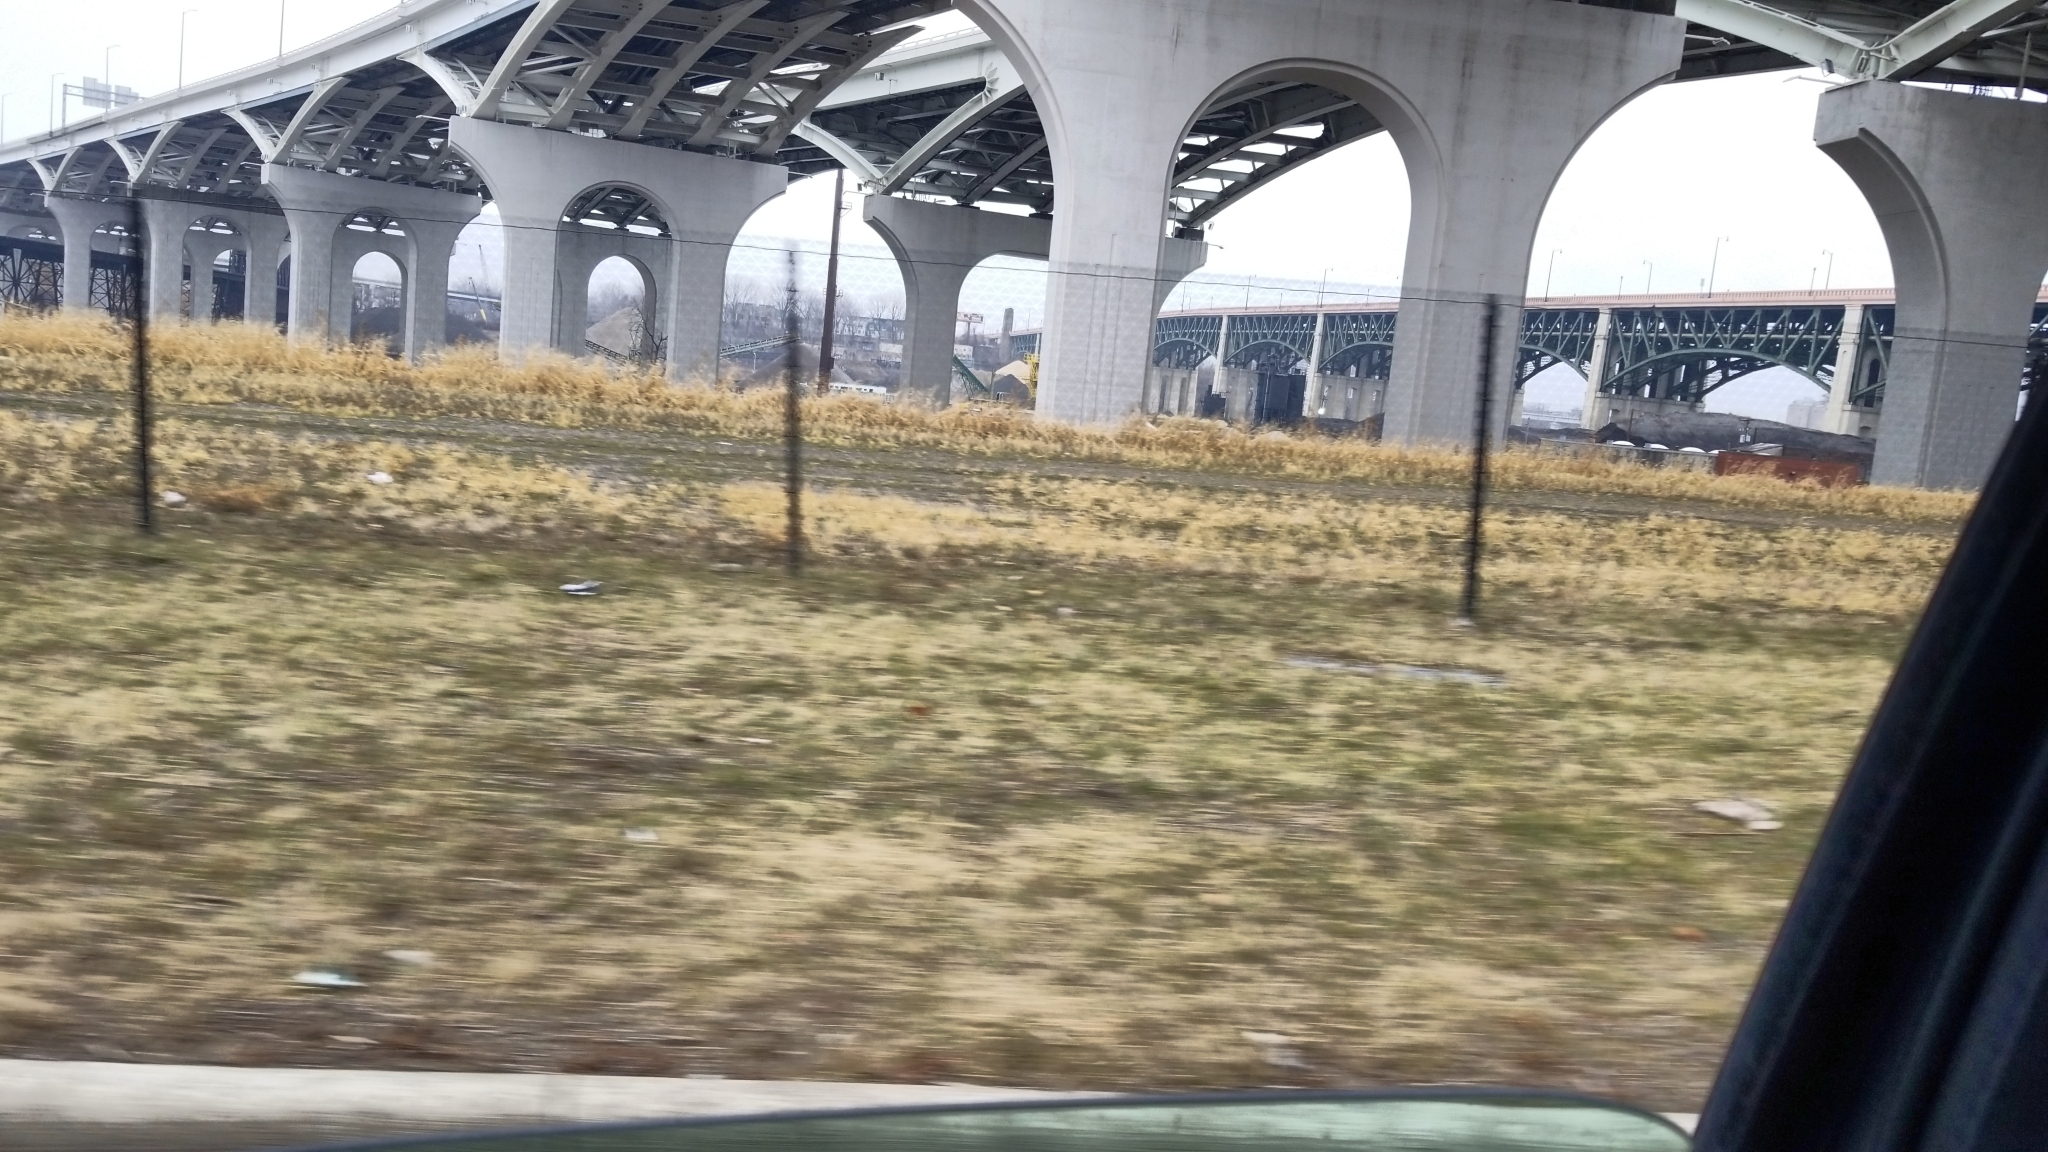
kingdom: Animalia
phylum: Chordata
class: Aves
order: Anseriformes
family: Anatidae
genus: Branta
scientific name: Branta canadensis
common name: Canada goose
